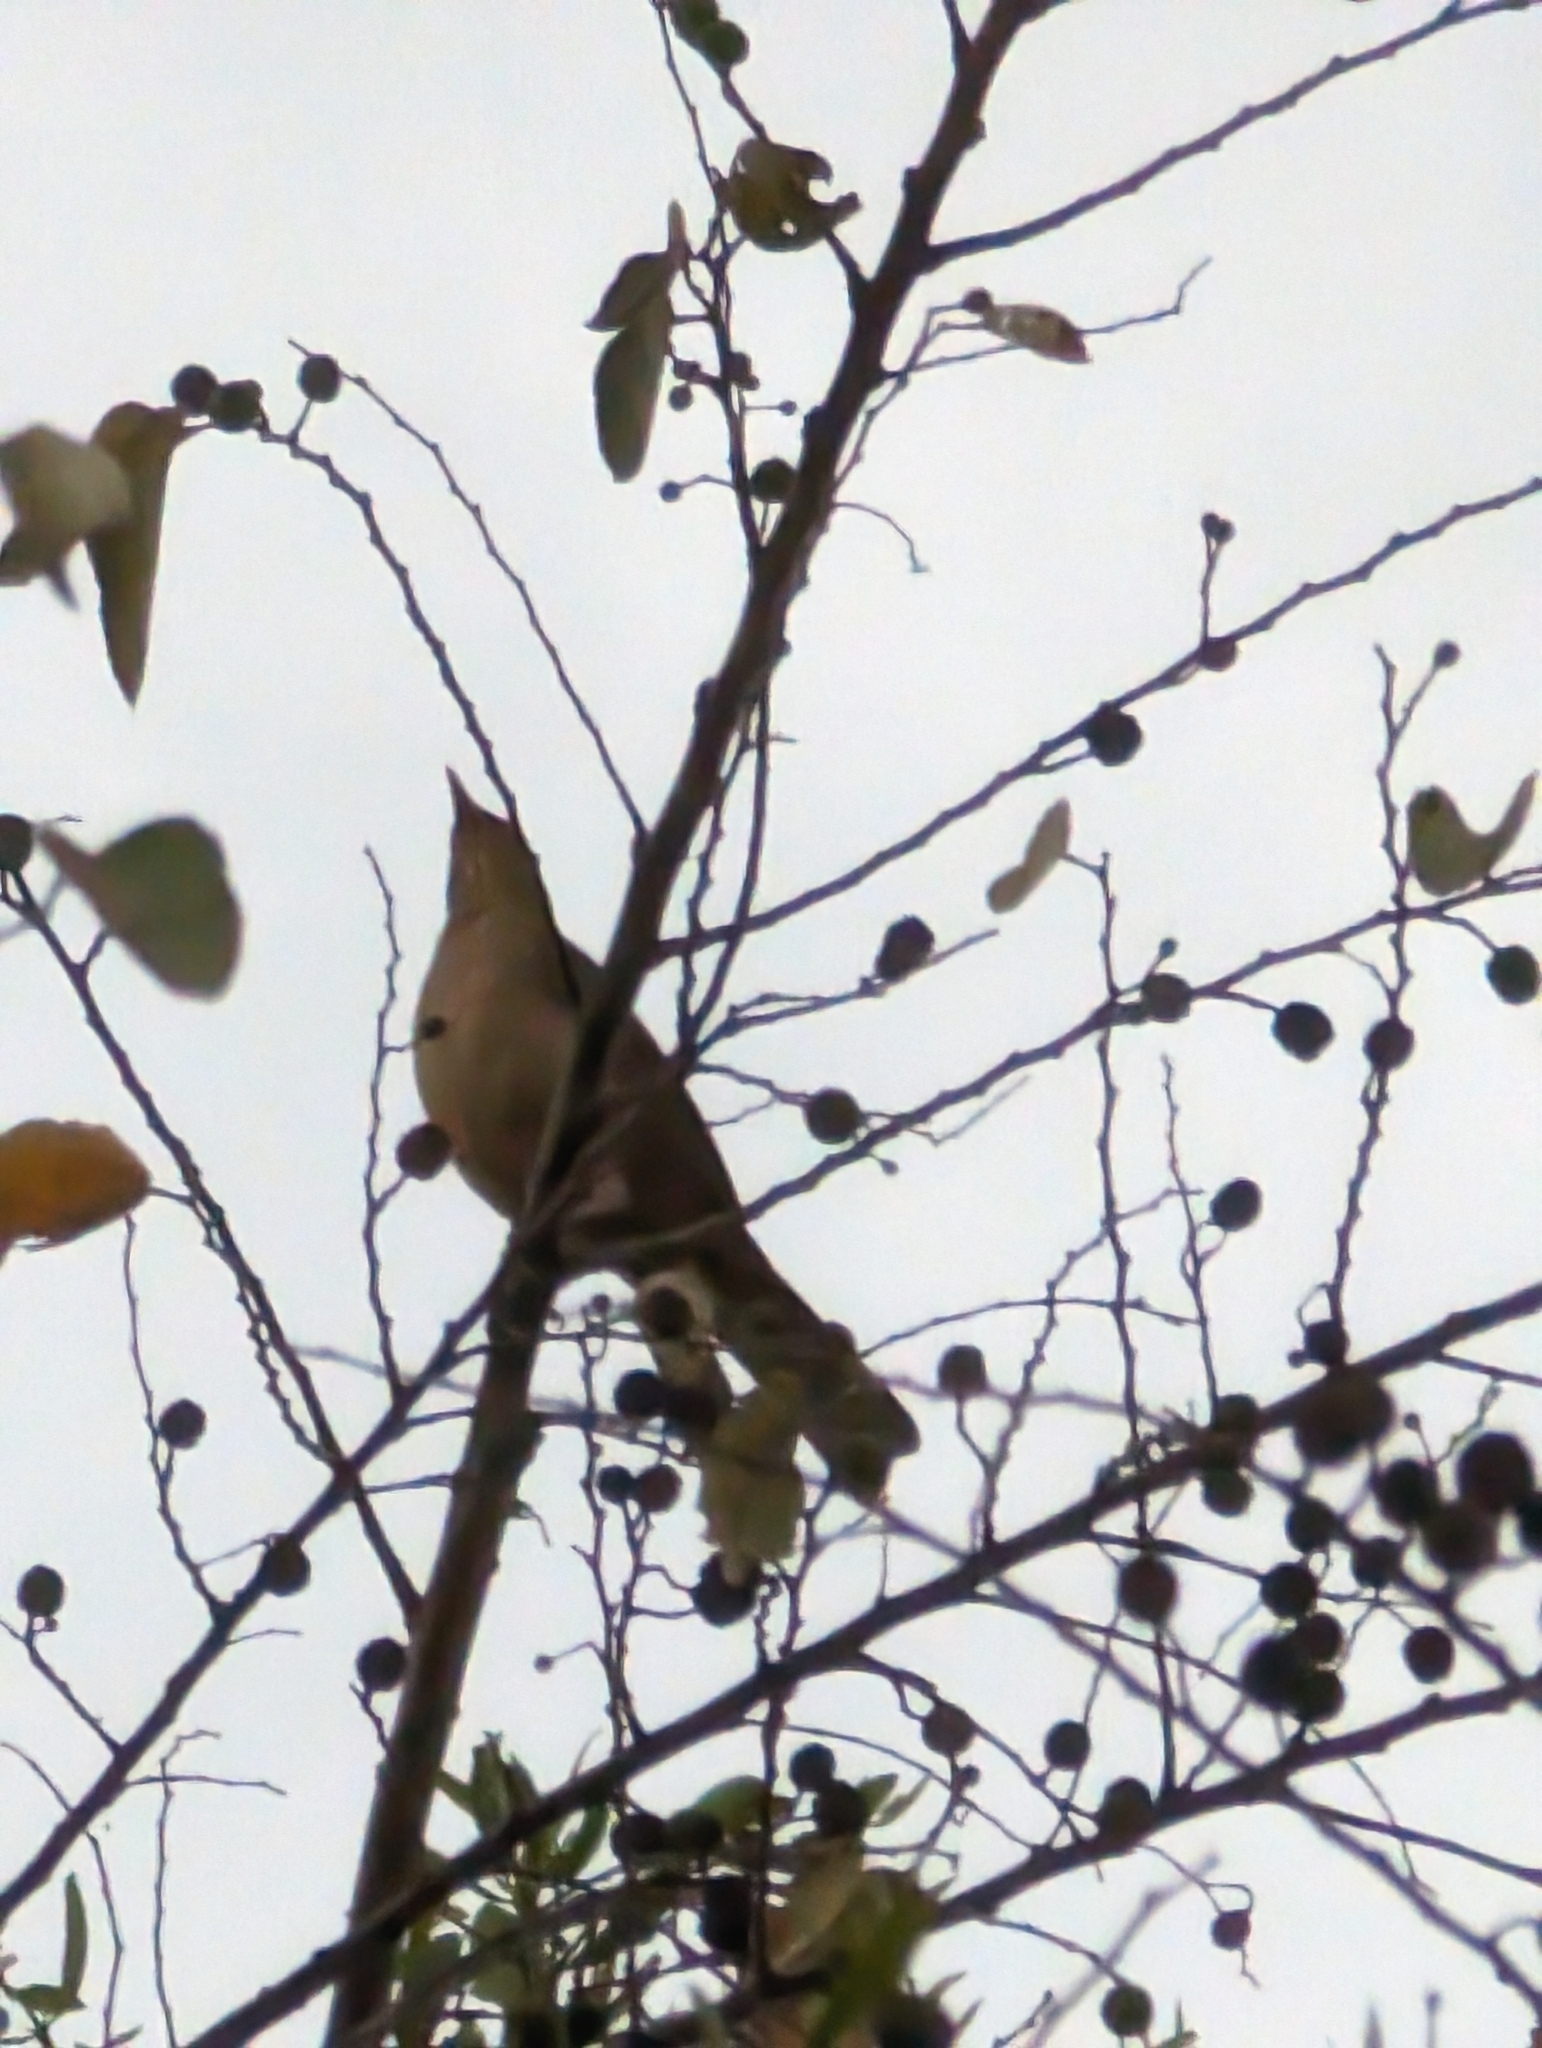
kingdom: Animalia
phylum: Chordata
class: Aves
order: Passeriformes
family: Turdidae
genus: Turdus
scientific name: Turdus grayi
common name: Clay-colored thrush
